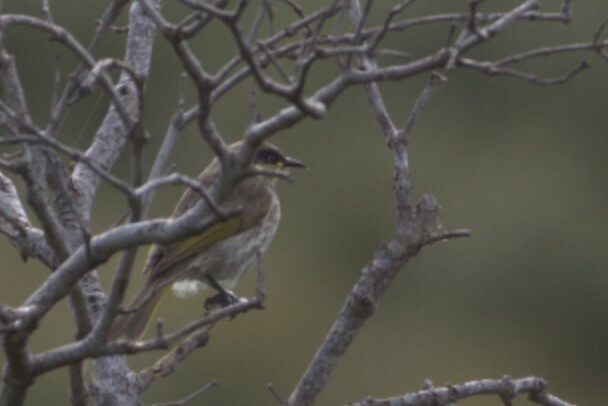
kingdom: Animalia
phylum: Chordata
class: Aves
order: Passeriformes
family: Meliphagidae
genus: Gavicalis
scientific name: Gavicalis fasciogularis
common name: Mangrove honeyeater
